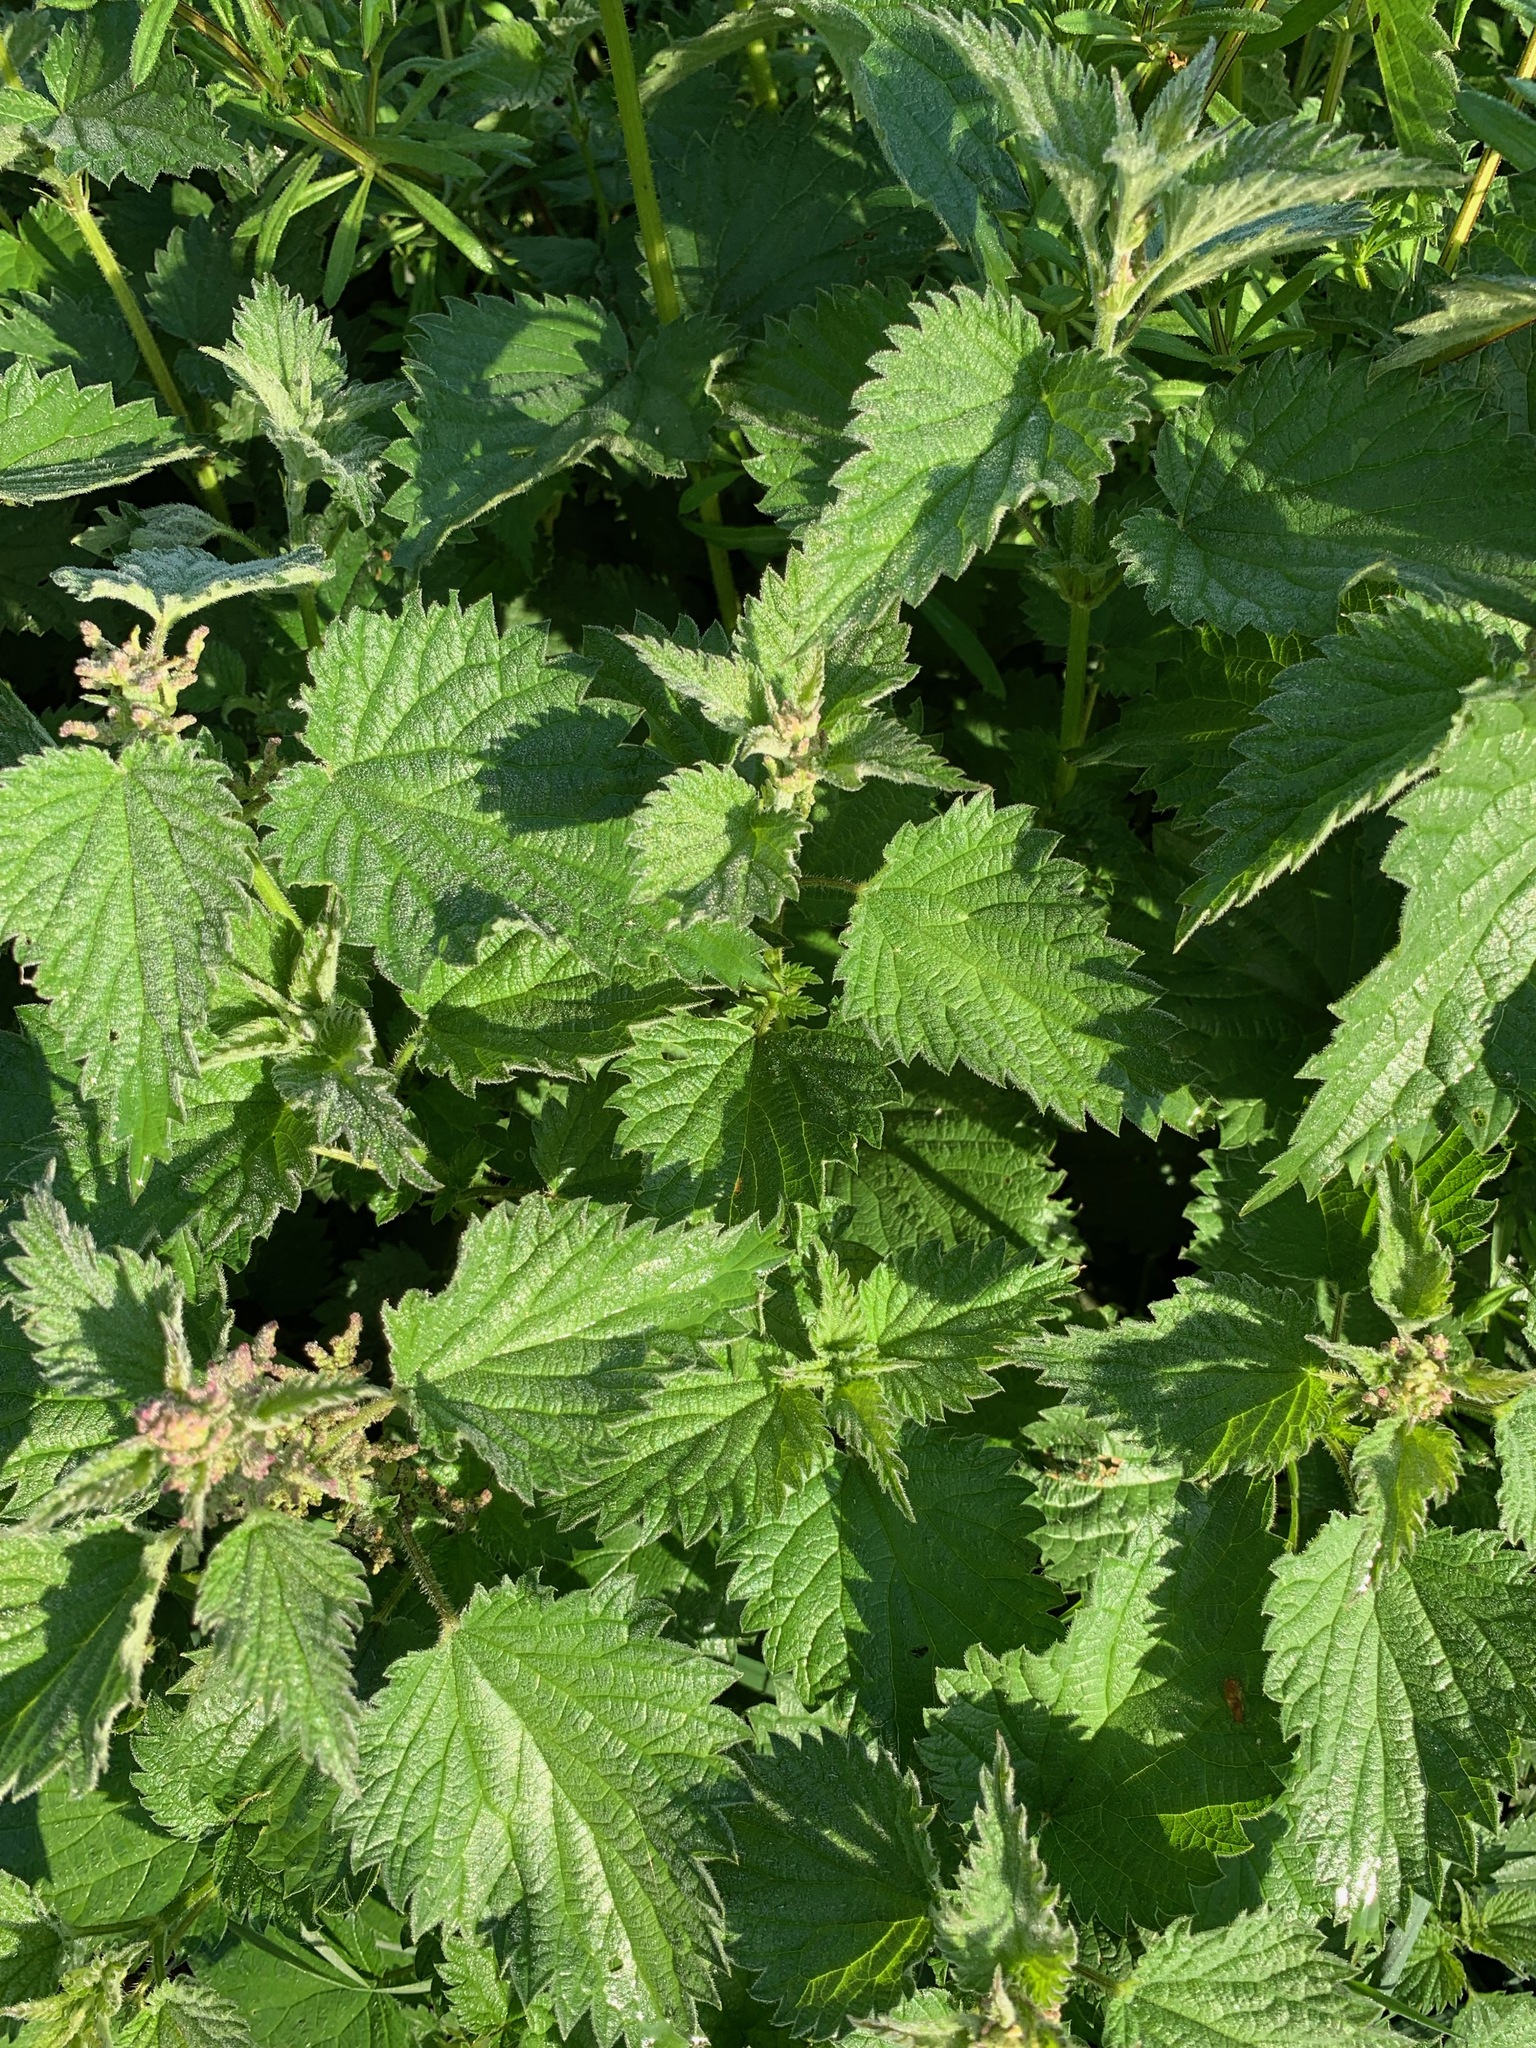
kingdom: Plantae
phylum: Tracheophyta
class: Magnoliopsida
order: Rosales
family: Urticaceae
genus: Urtica
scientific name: Urtica dioica
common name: Common nettle
